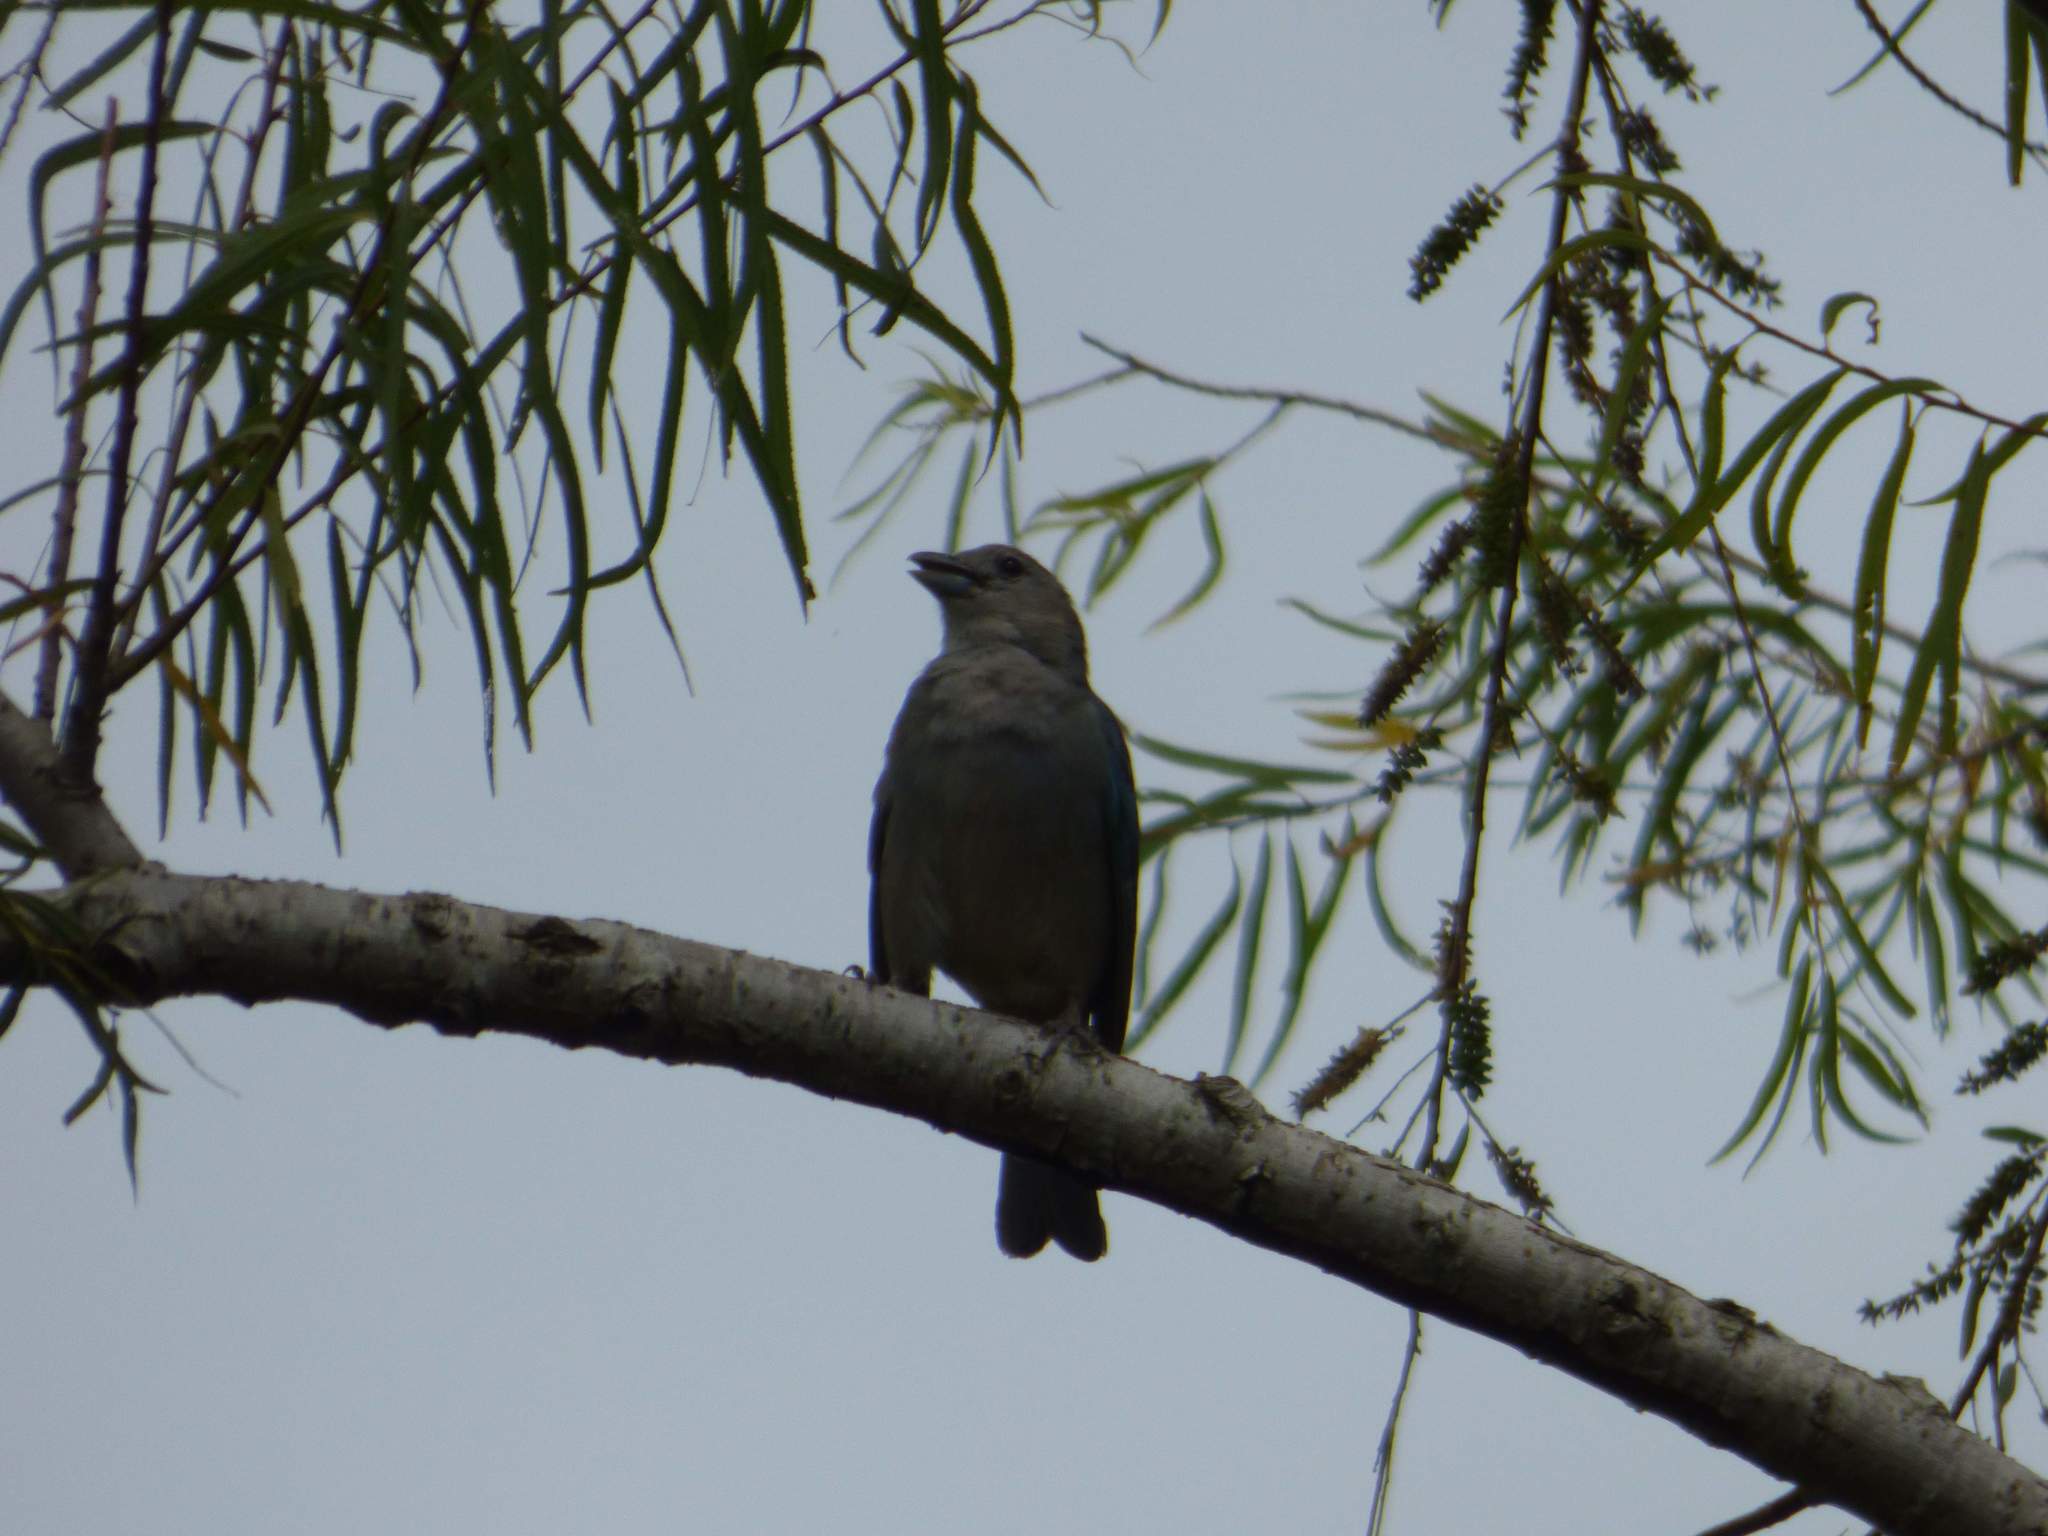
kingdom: Animalia
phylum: Chordata
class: Aves
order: Passeriformes
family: Thraupidae
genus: Thraupis
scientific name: Thraupis sayaca
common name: Sayaca tanager
